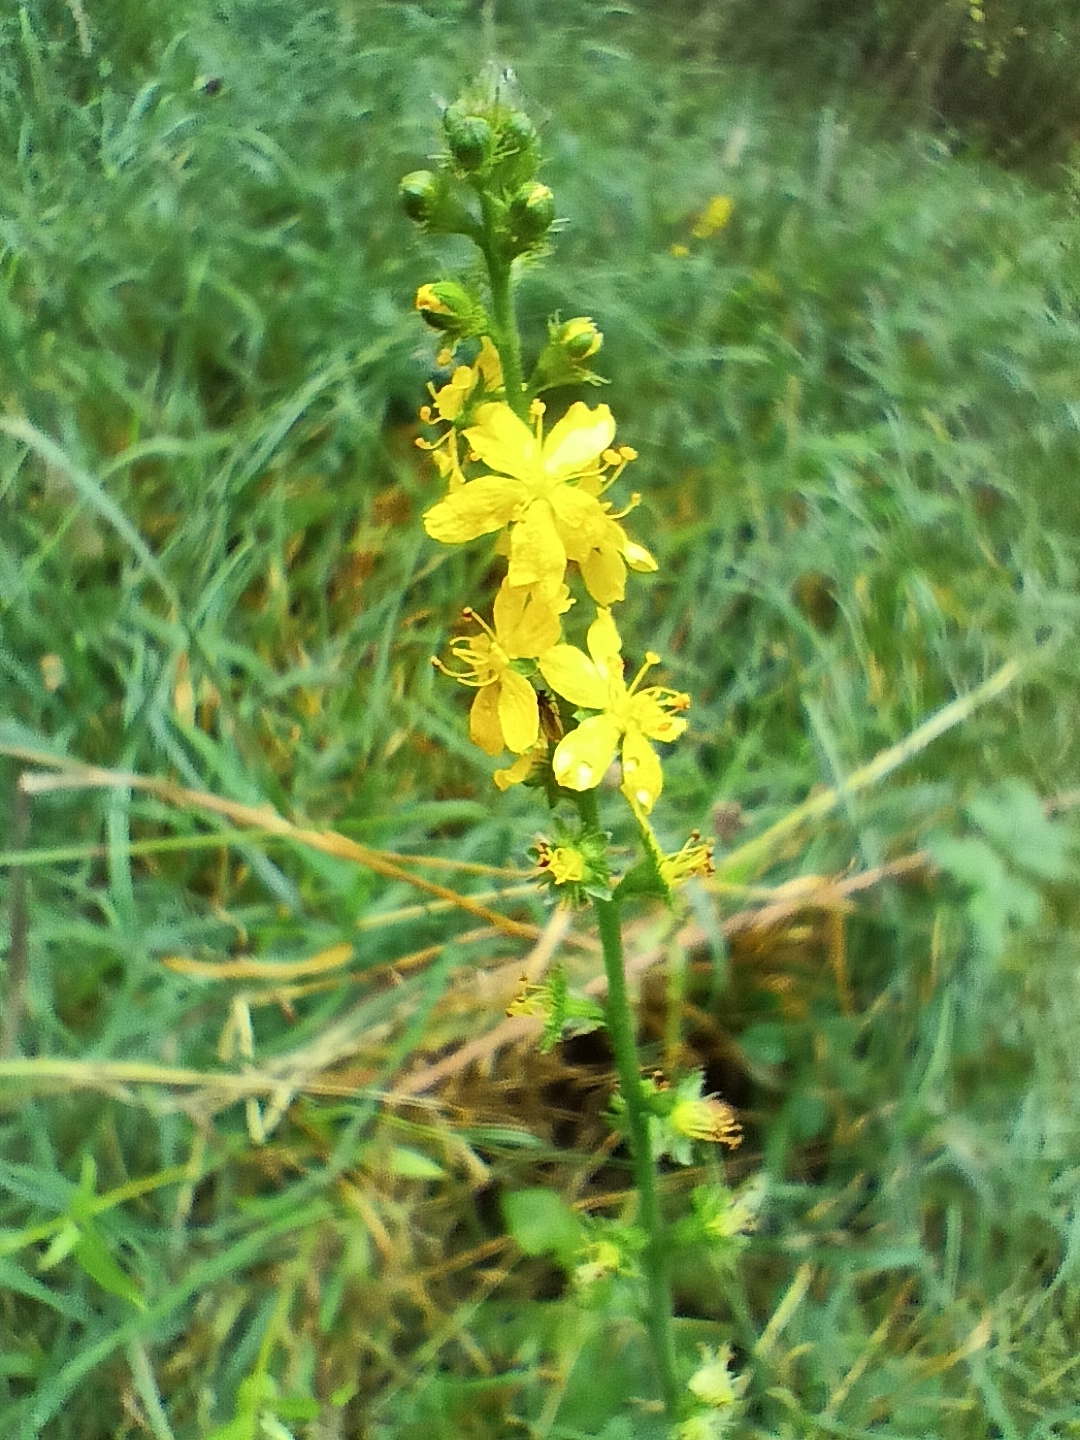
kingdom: Plantae
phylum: Tracheophyta
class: Magnoliopsida
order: Rosales
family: Rosaceae
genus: Agrimonia
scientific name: Agrimonia eupatoria
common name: Agrimony
